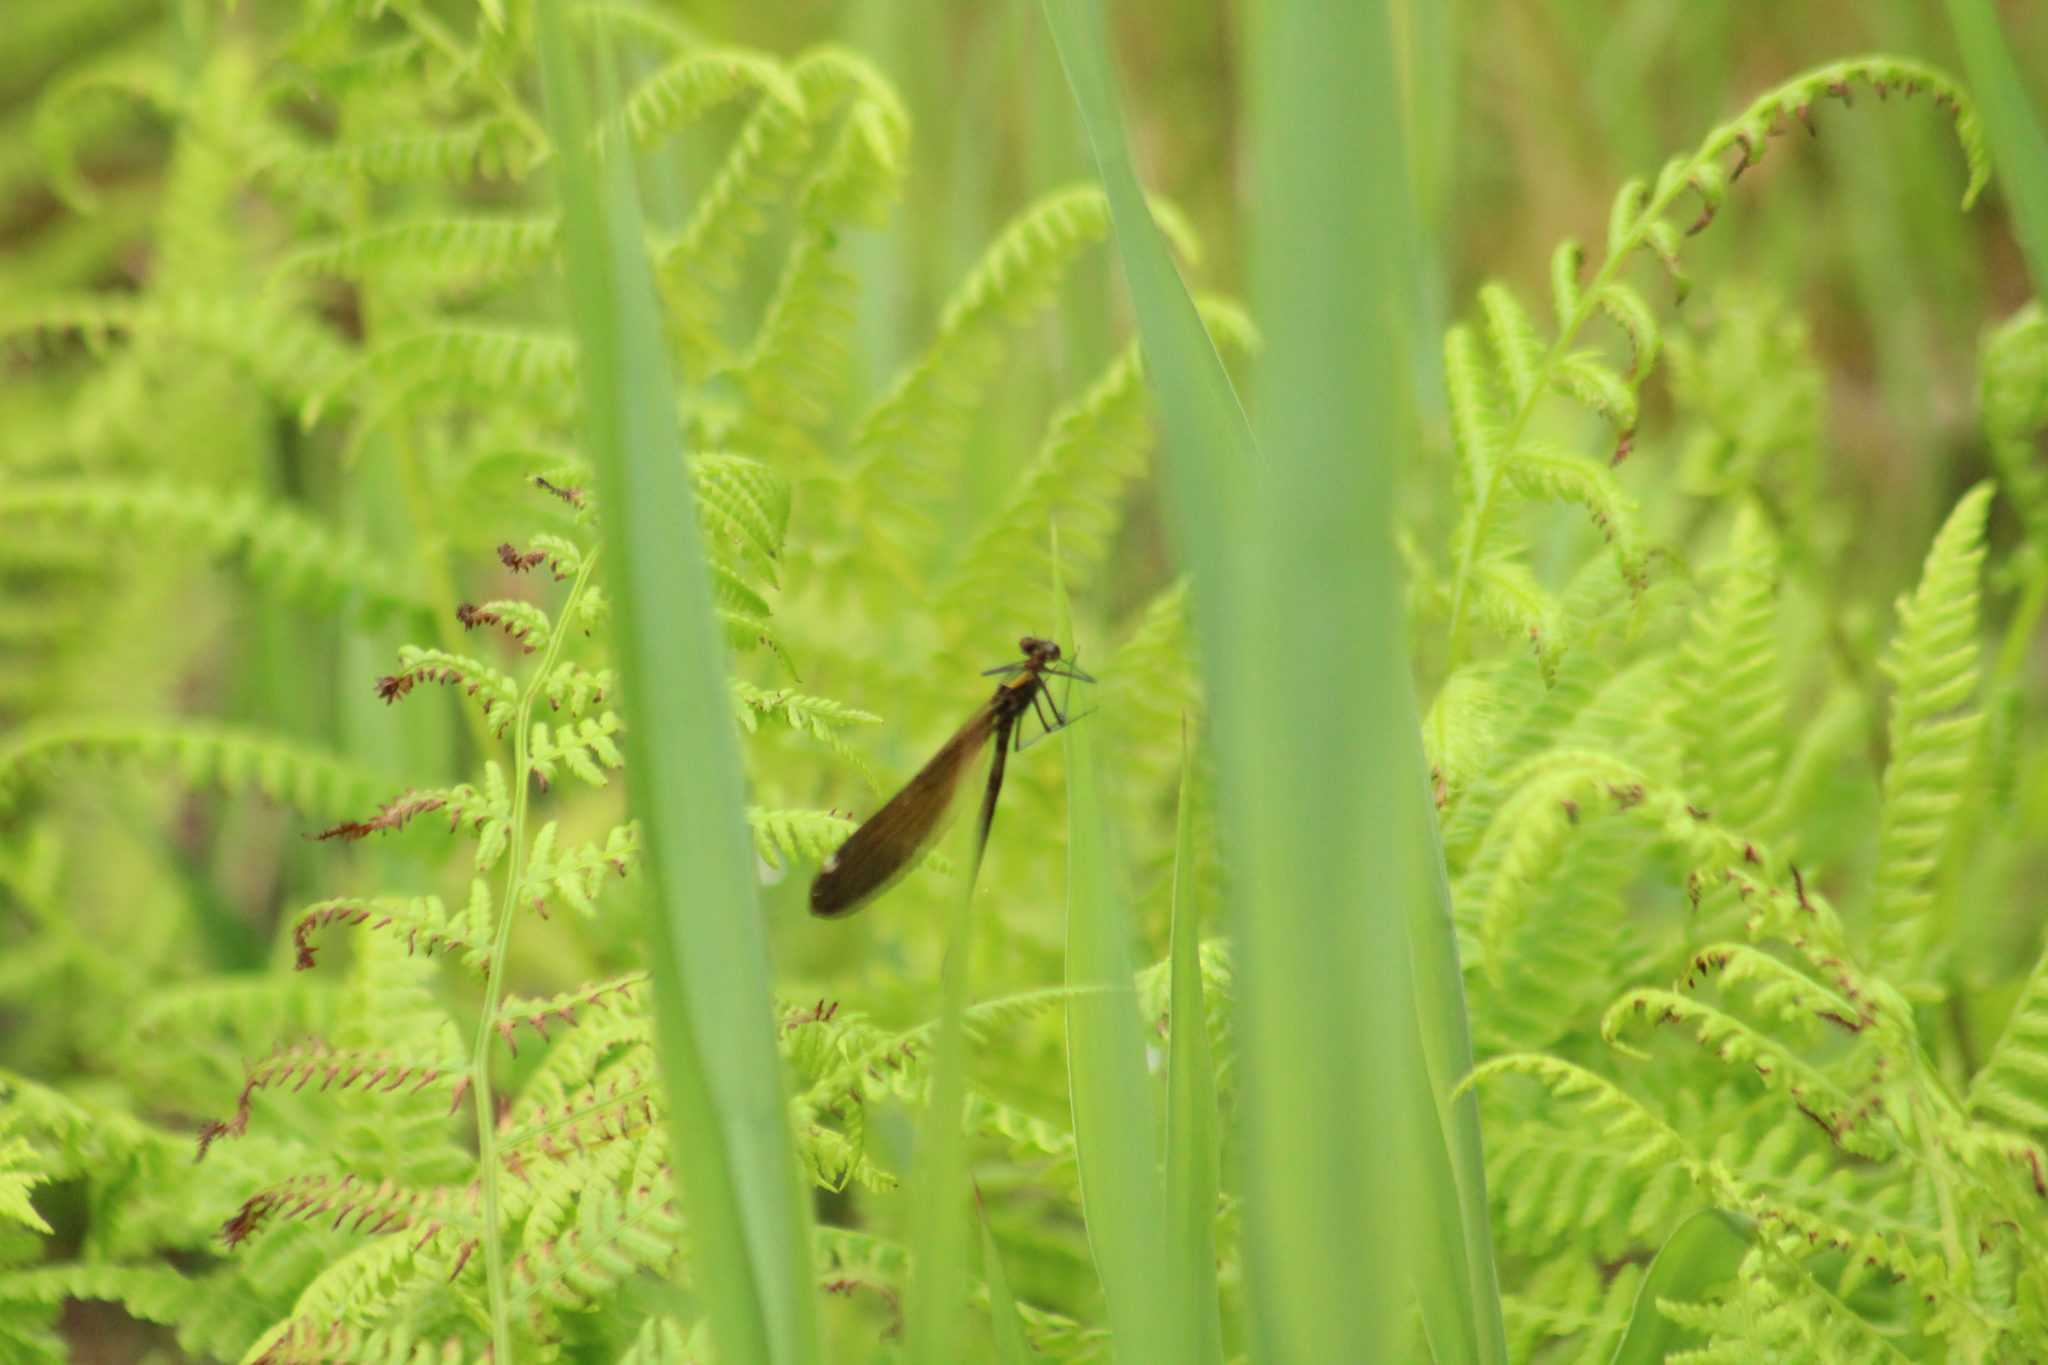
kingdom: Animalia
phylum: Arthropoda
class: Insecta
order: Odonata
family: Calopterygidae
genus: Calopteryx
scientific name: Calopteryx virgo
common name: Beautiful demoiselle
